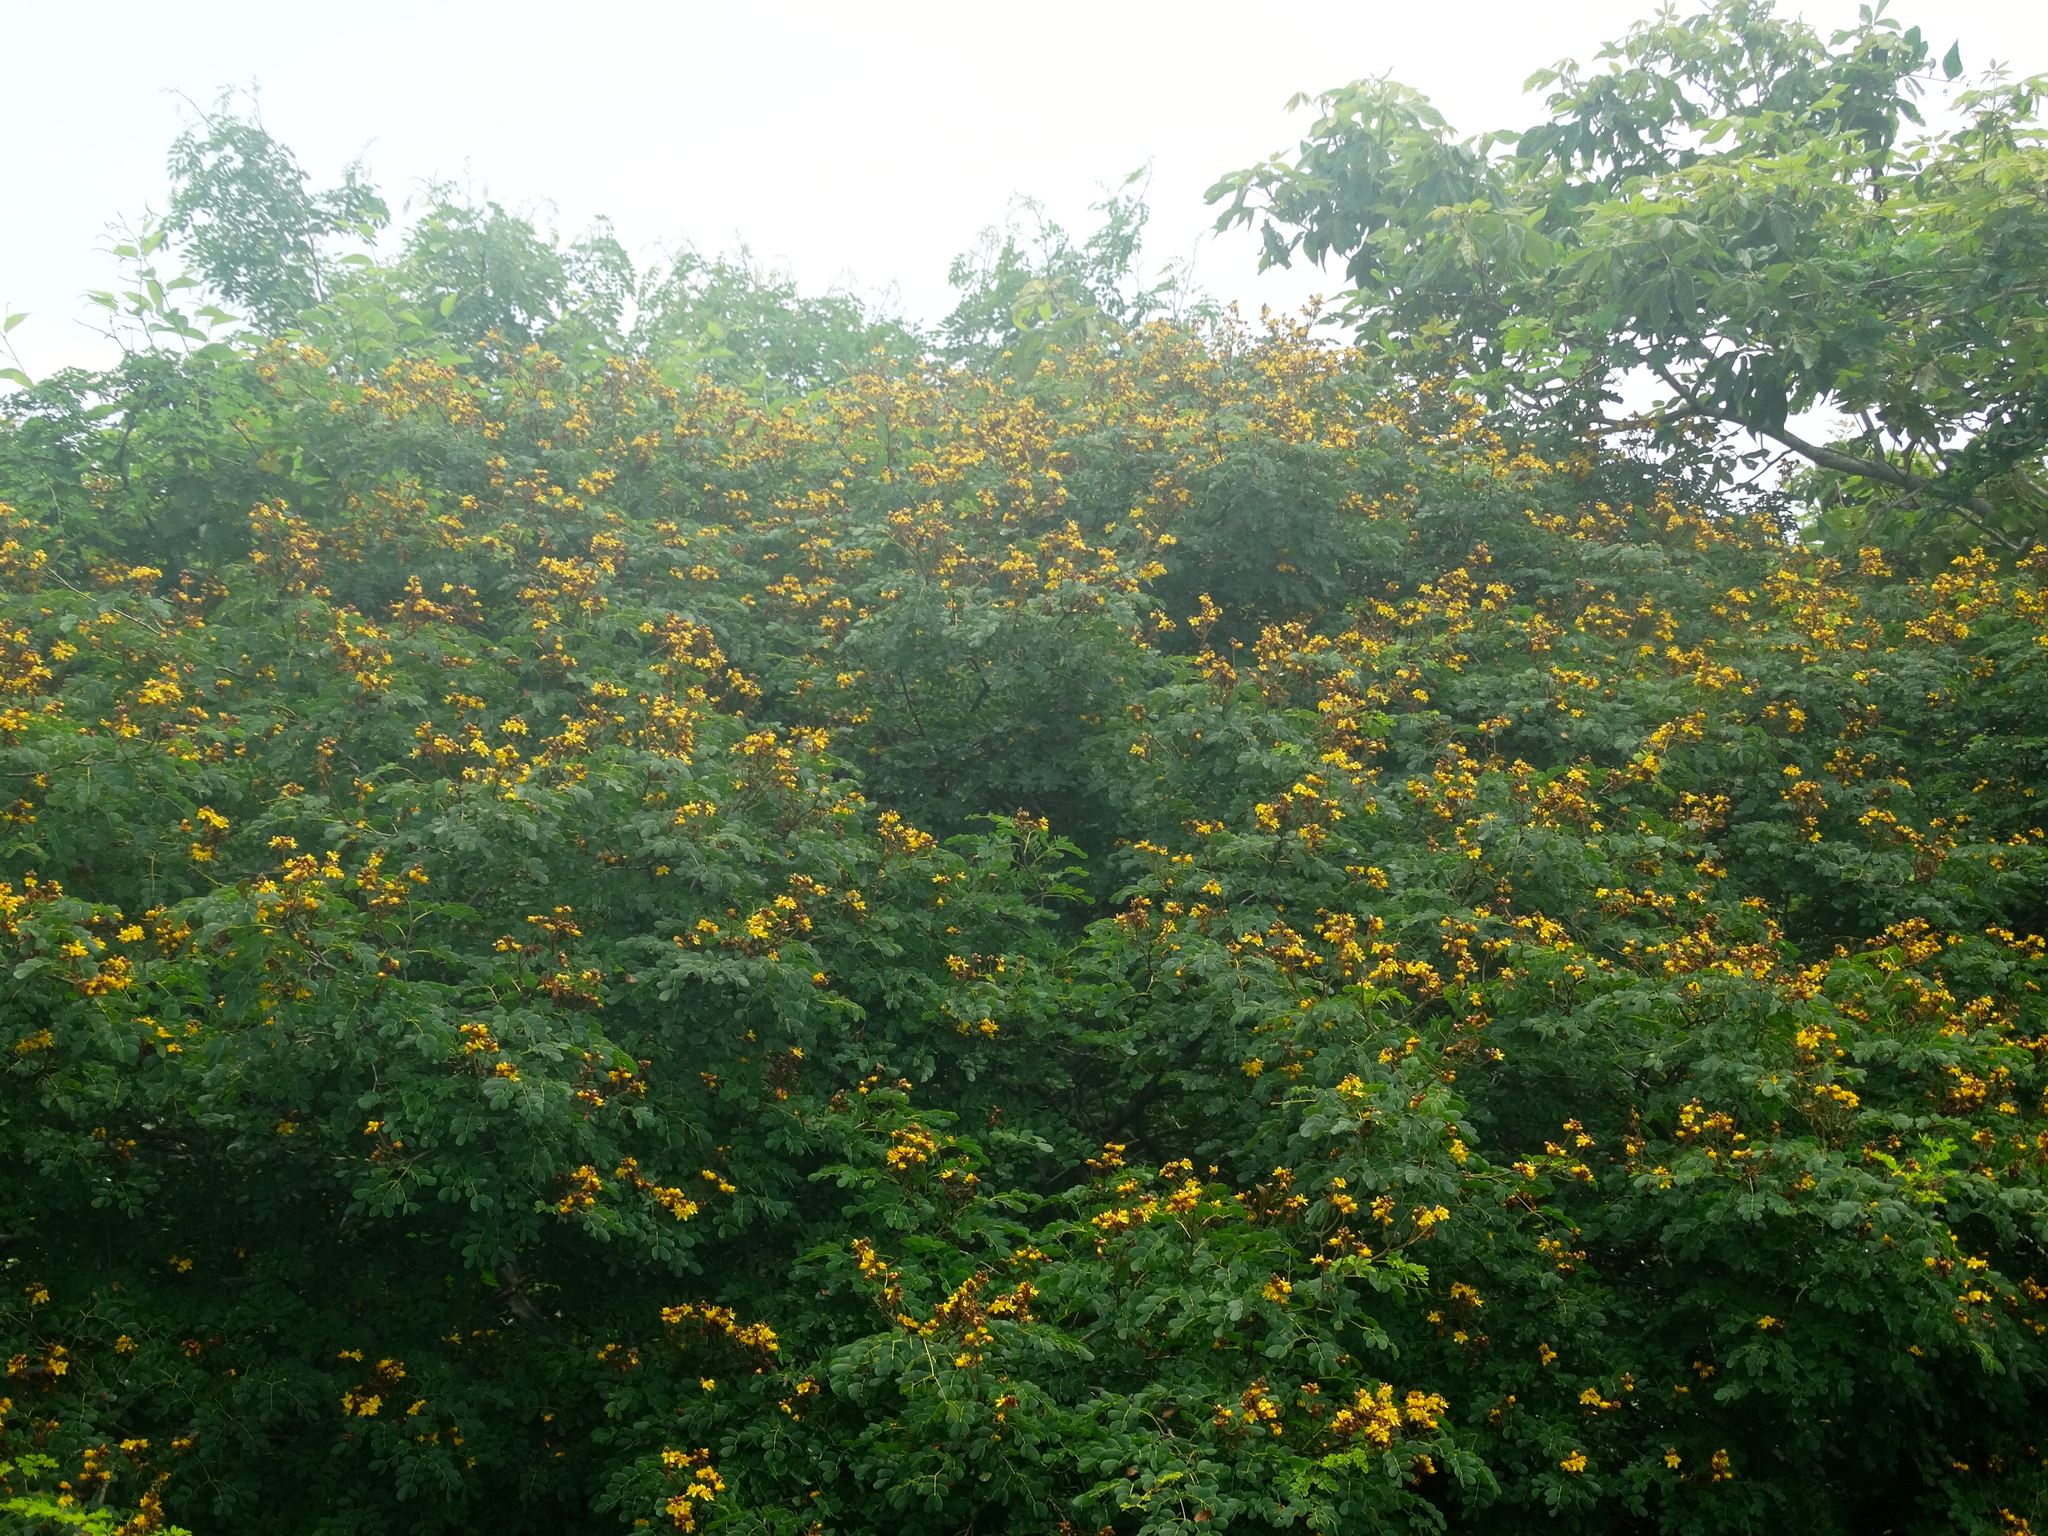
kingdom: Plantae
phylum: Tracheophyta
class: Magnoliopsida
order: Fabales
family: Fabaceae
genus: Libidibia
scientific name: Libidibia sclerocarpa
